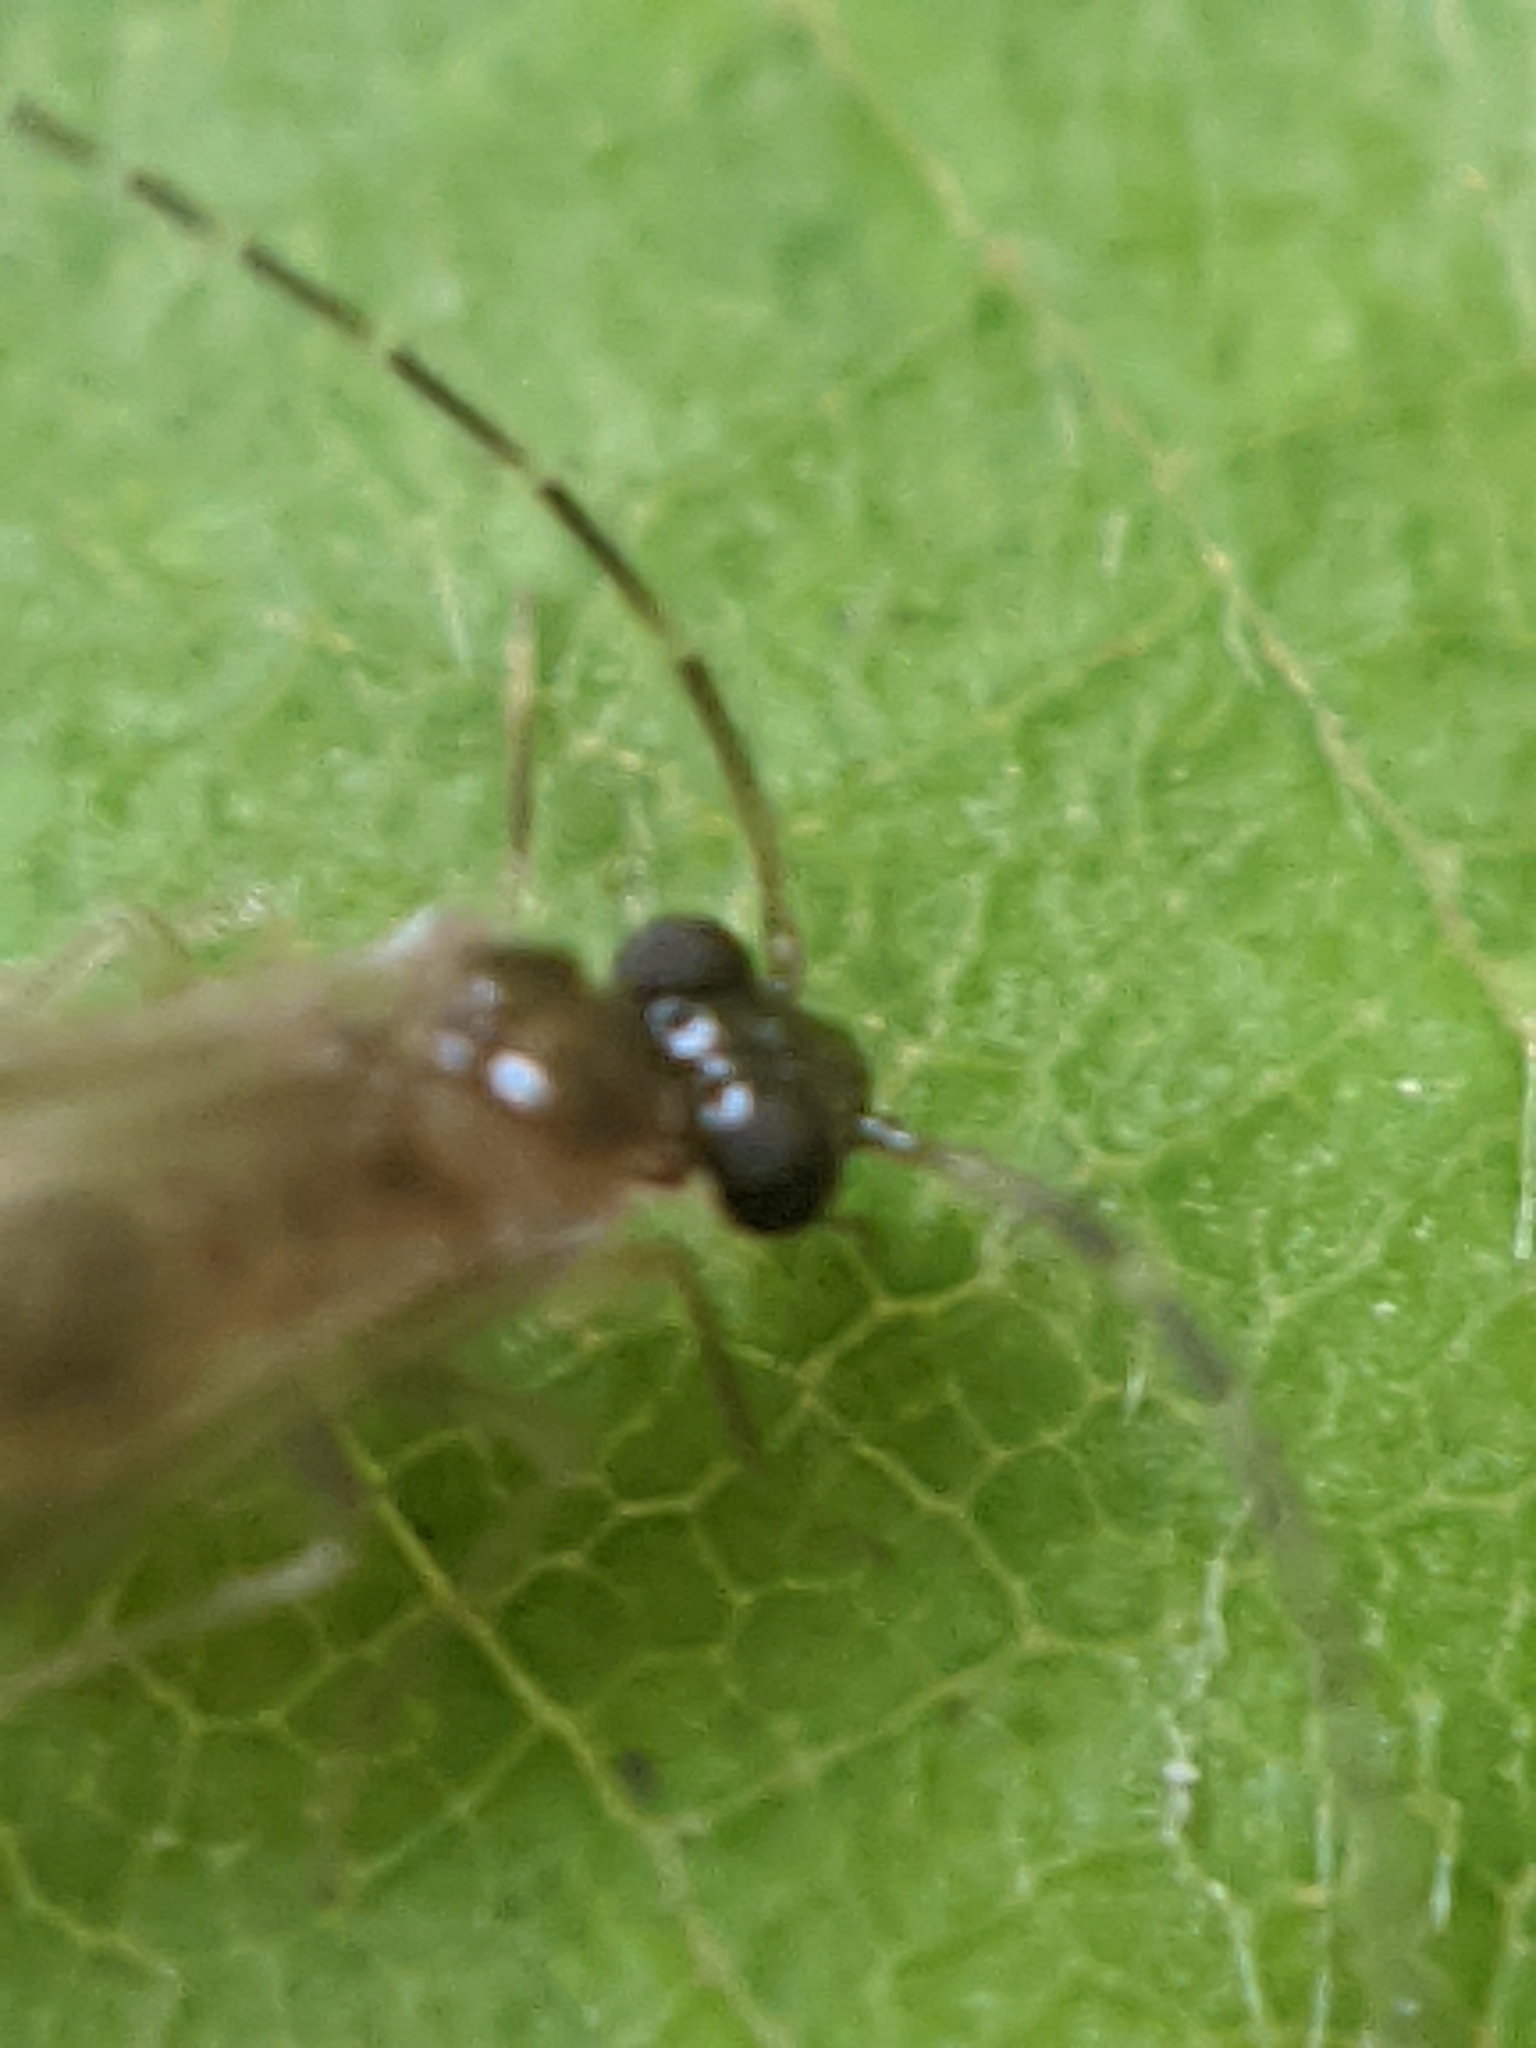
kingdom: Animalia
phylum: Arthropoda
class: Insecta
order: Psocodea
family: Amphipsocidae
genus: Polypsocus
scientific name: Polypsocus corruptus
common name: Corrupt barklouse
